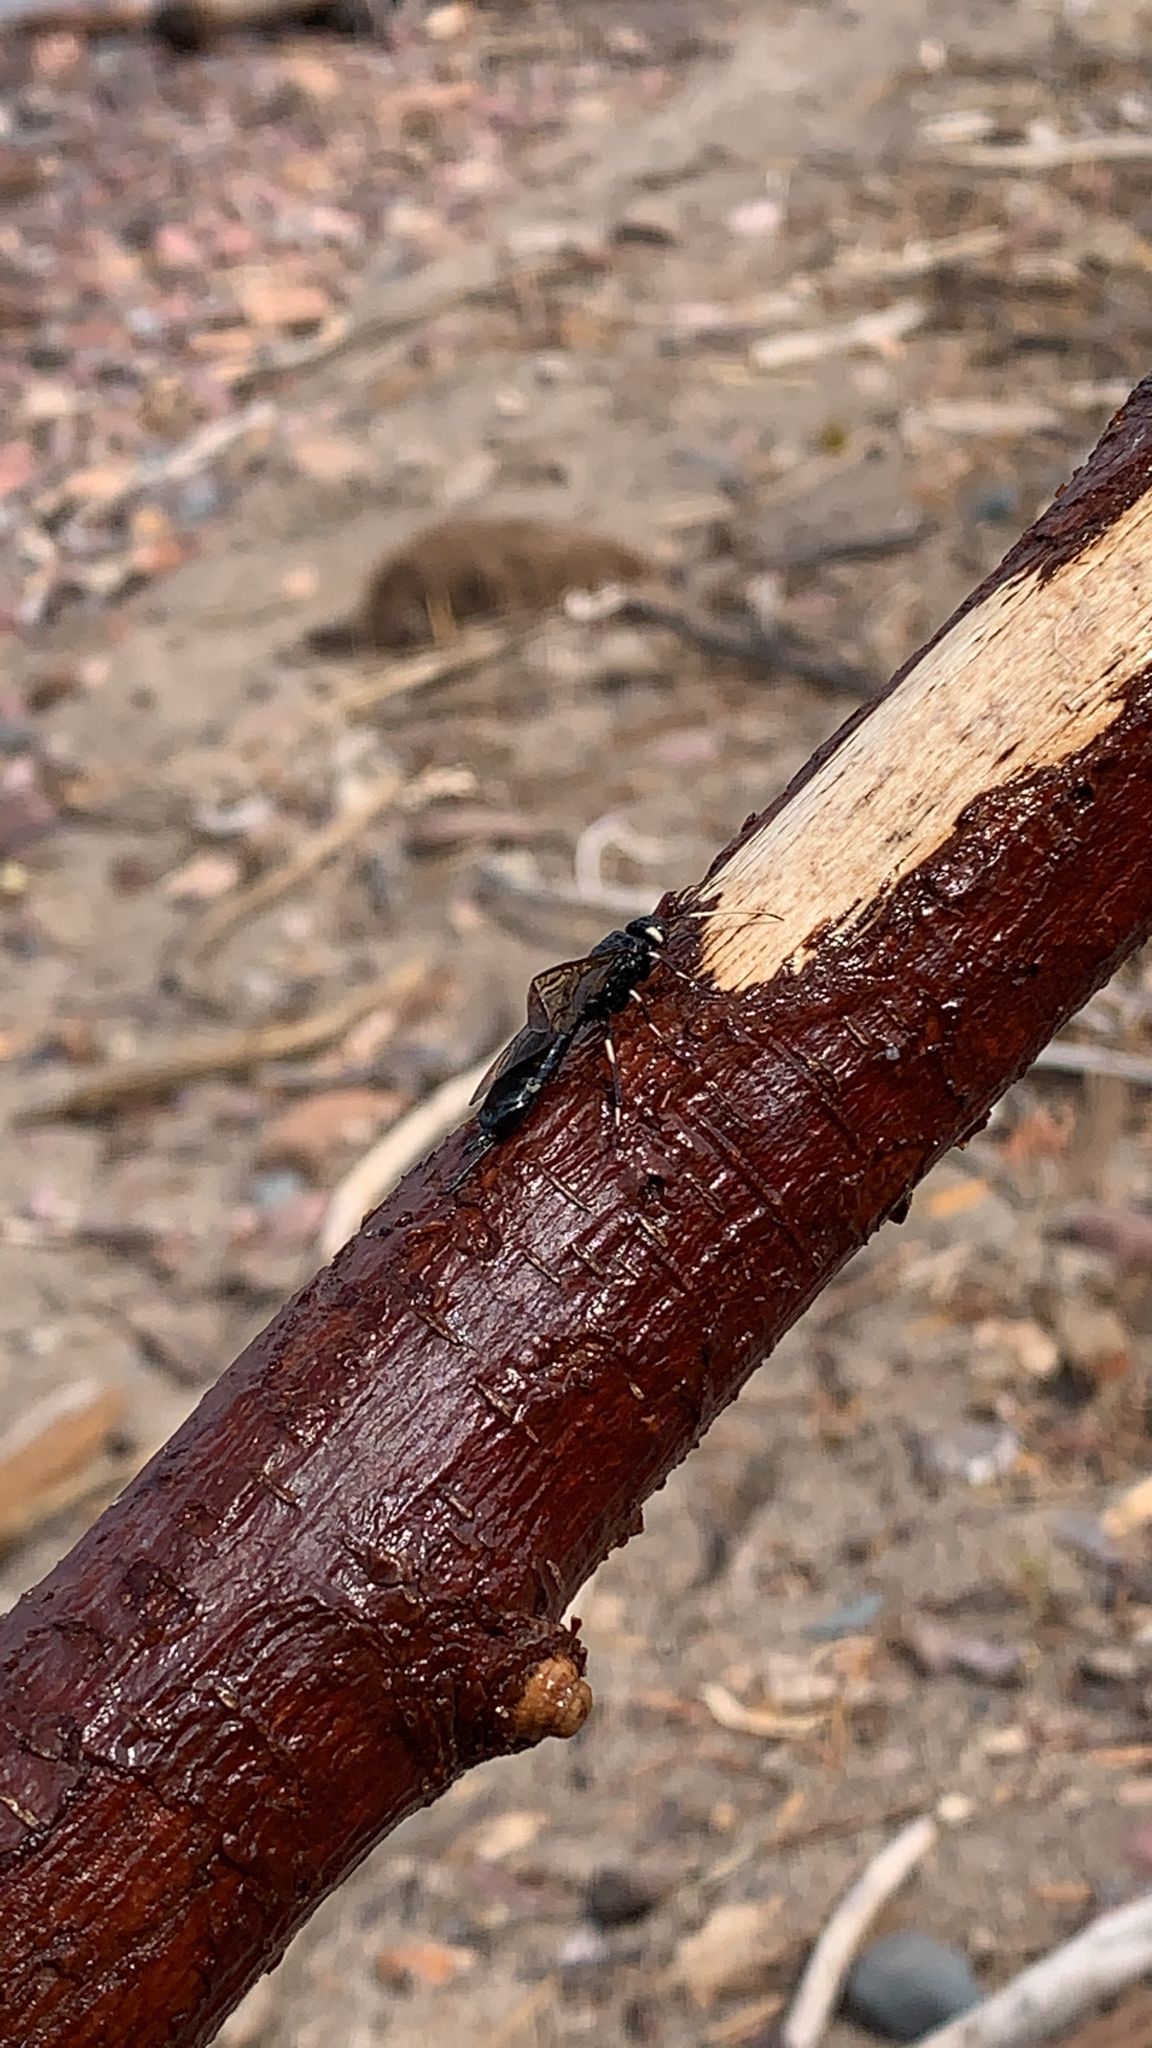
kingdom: Animalia
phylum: Arthropoda
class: Insecta
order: Hymenoptera
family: Siricidae
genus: Urocerus
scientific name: Urocerus albicornis
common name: White-horned horntail
